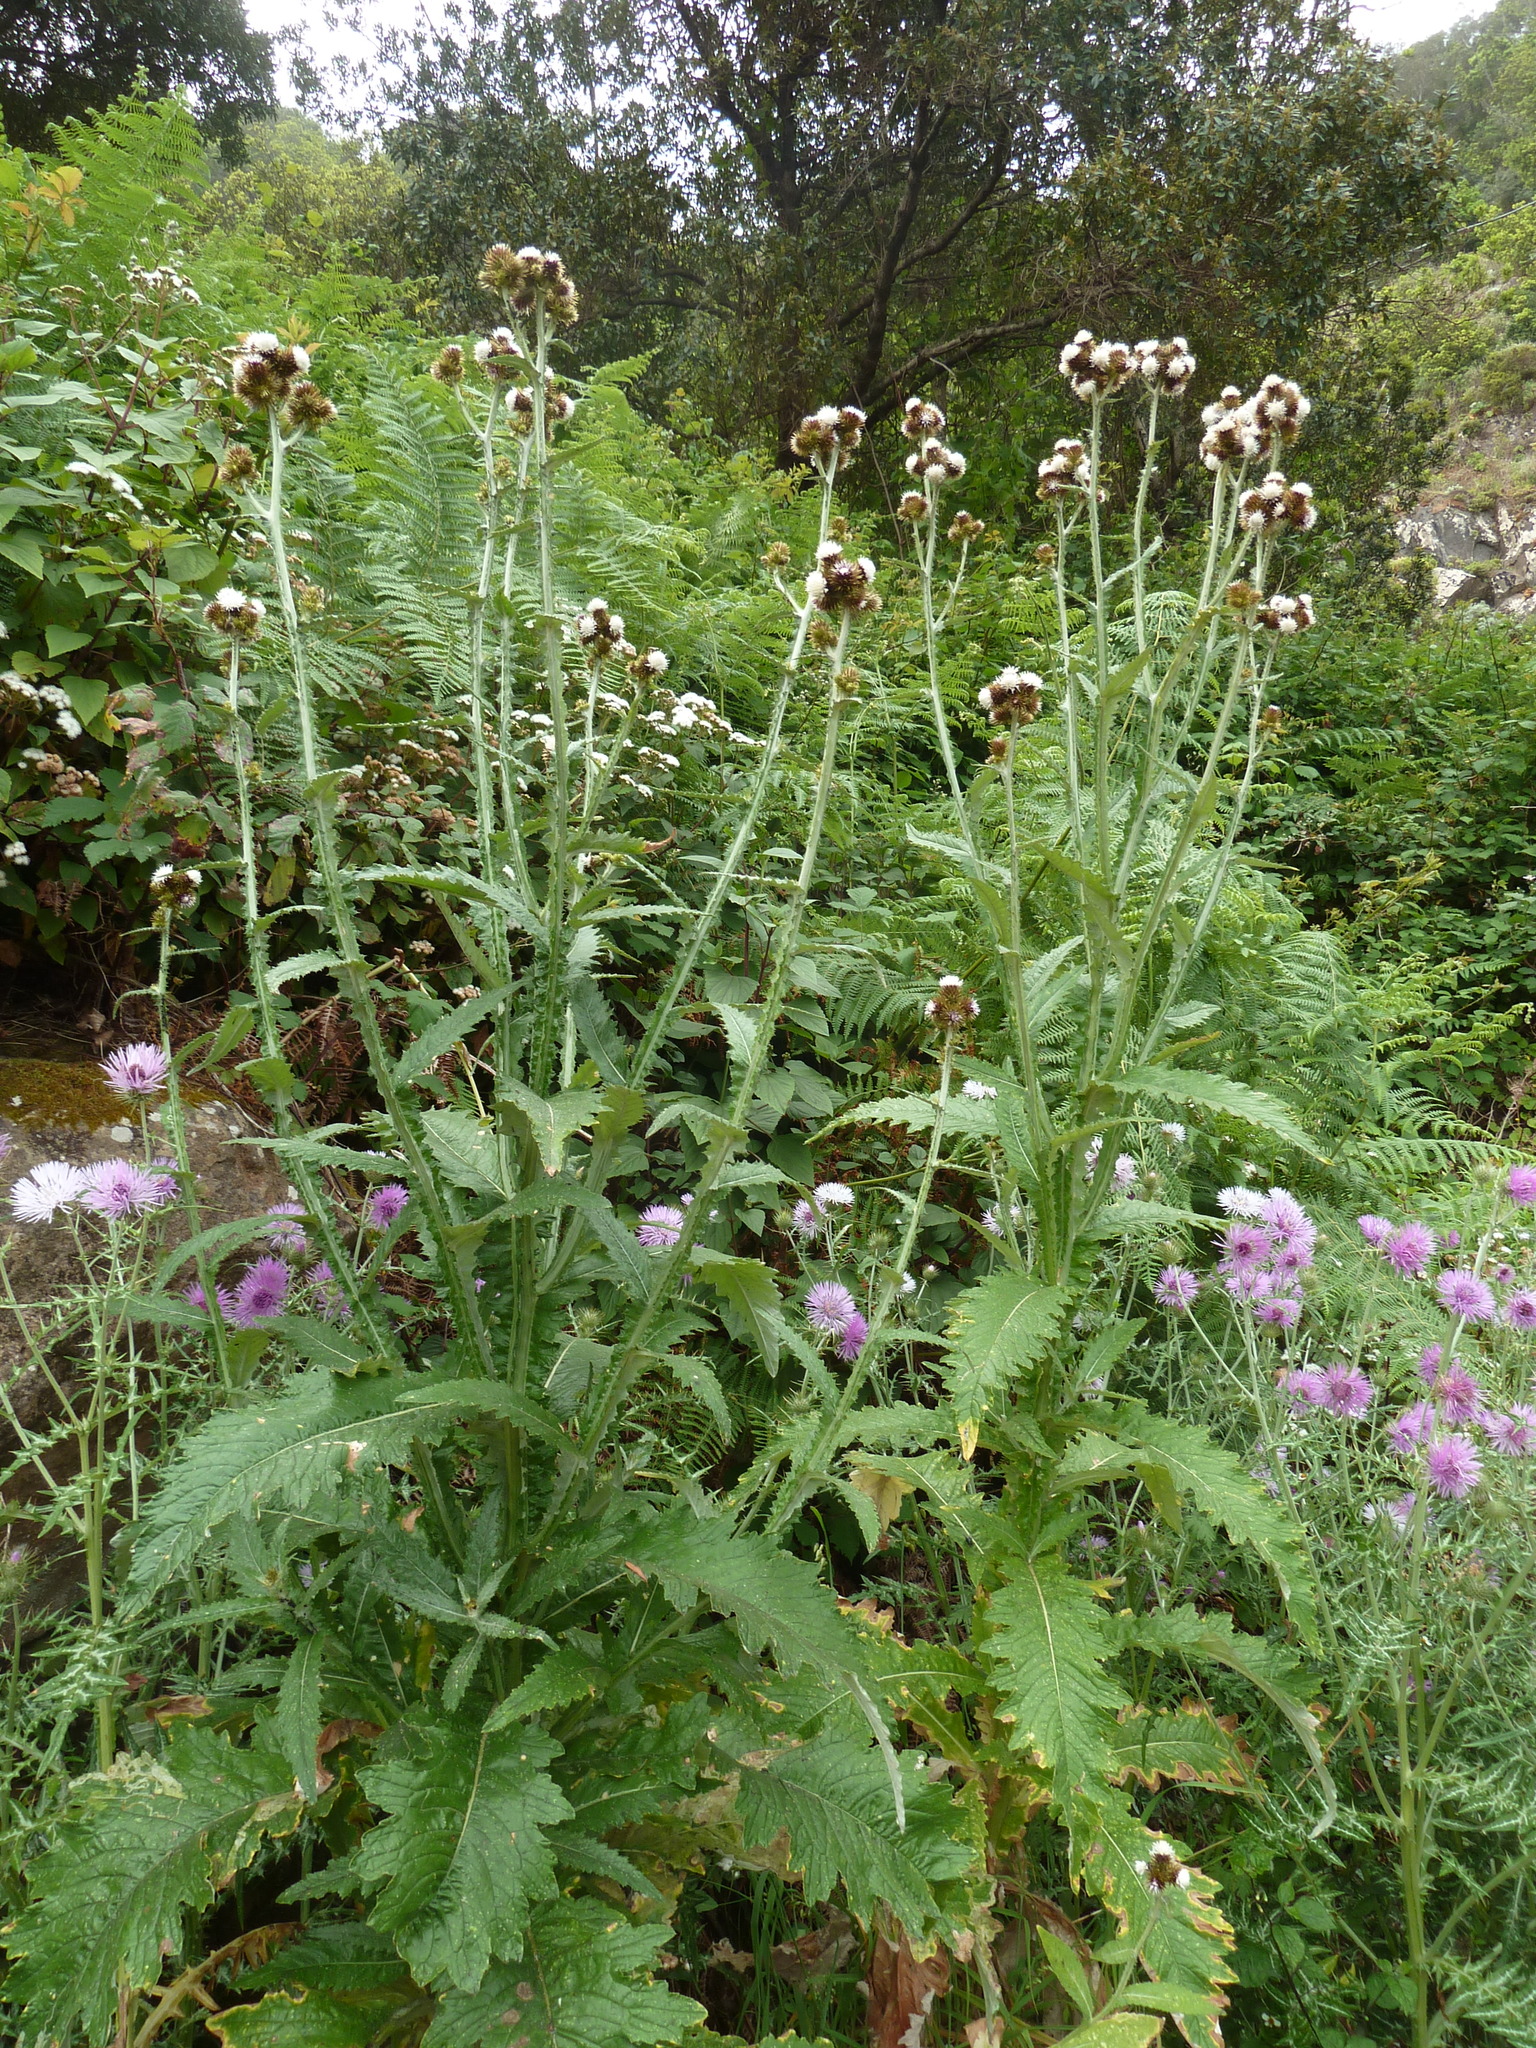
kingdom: Plantae
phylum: Tracheophyta
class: Magnoliopsida
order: Asterales
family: Asteraceae
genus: Carduus
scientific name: Carduus squarrosus
